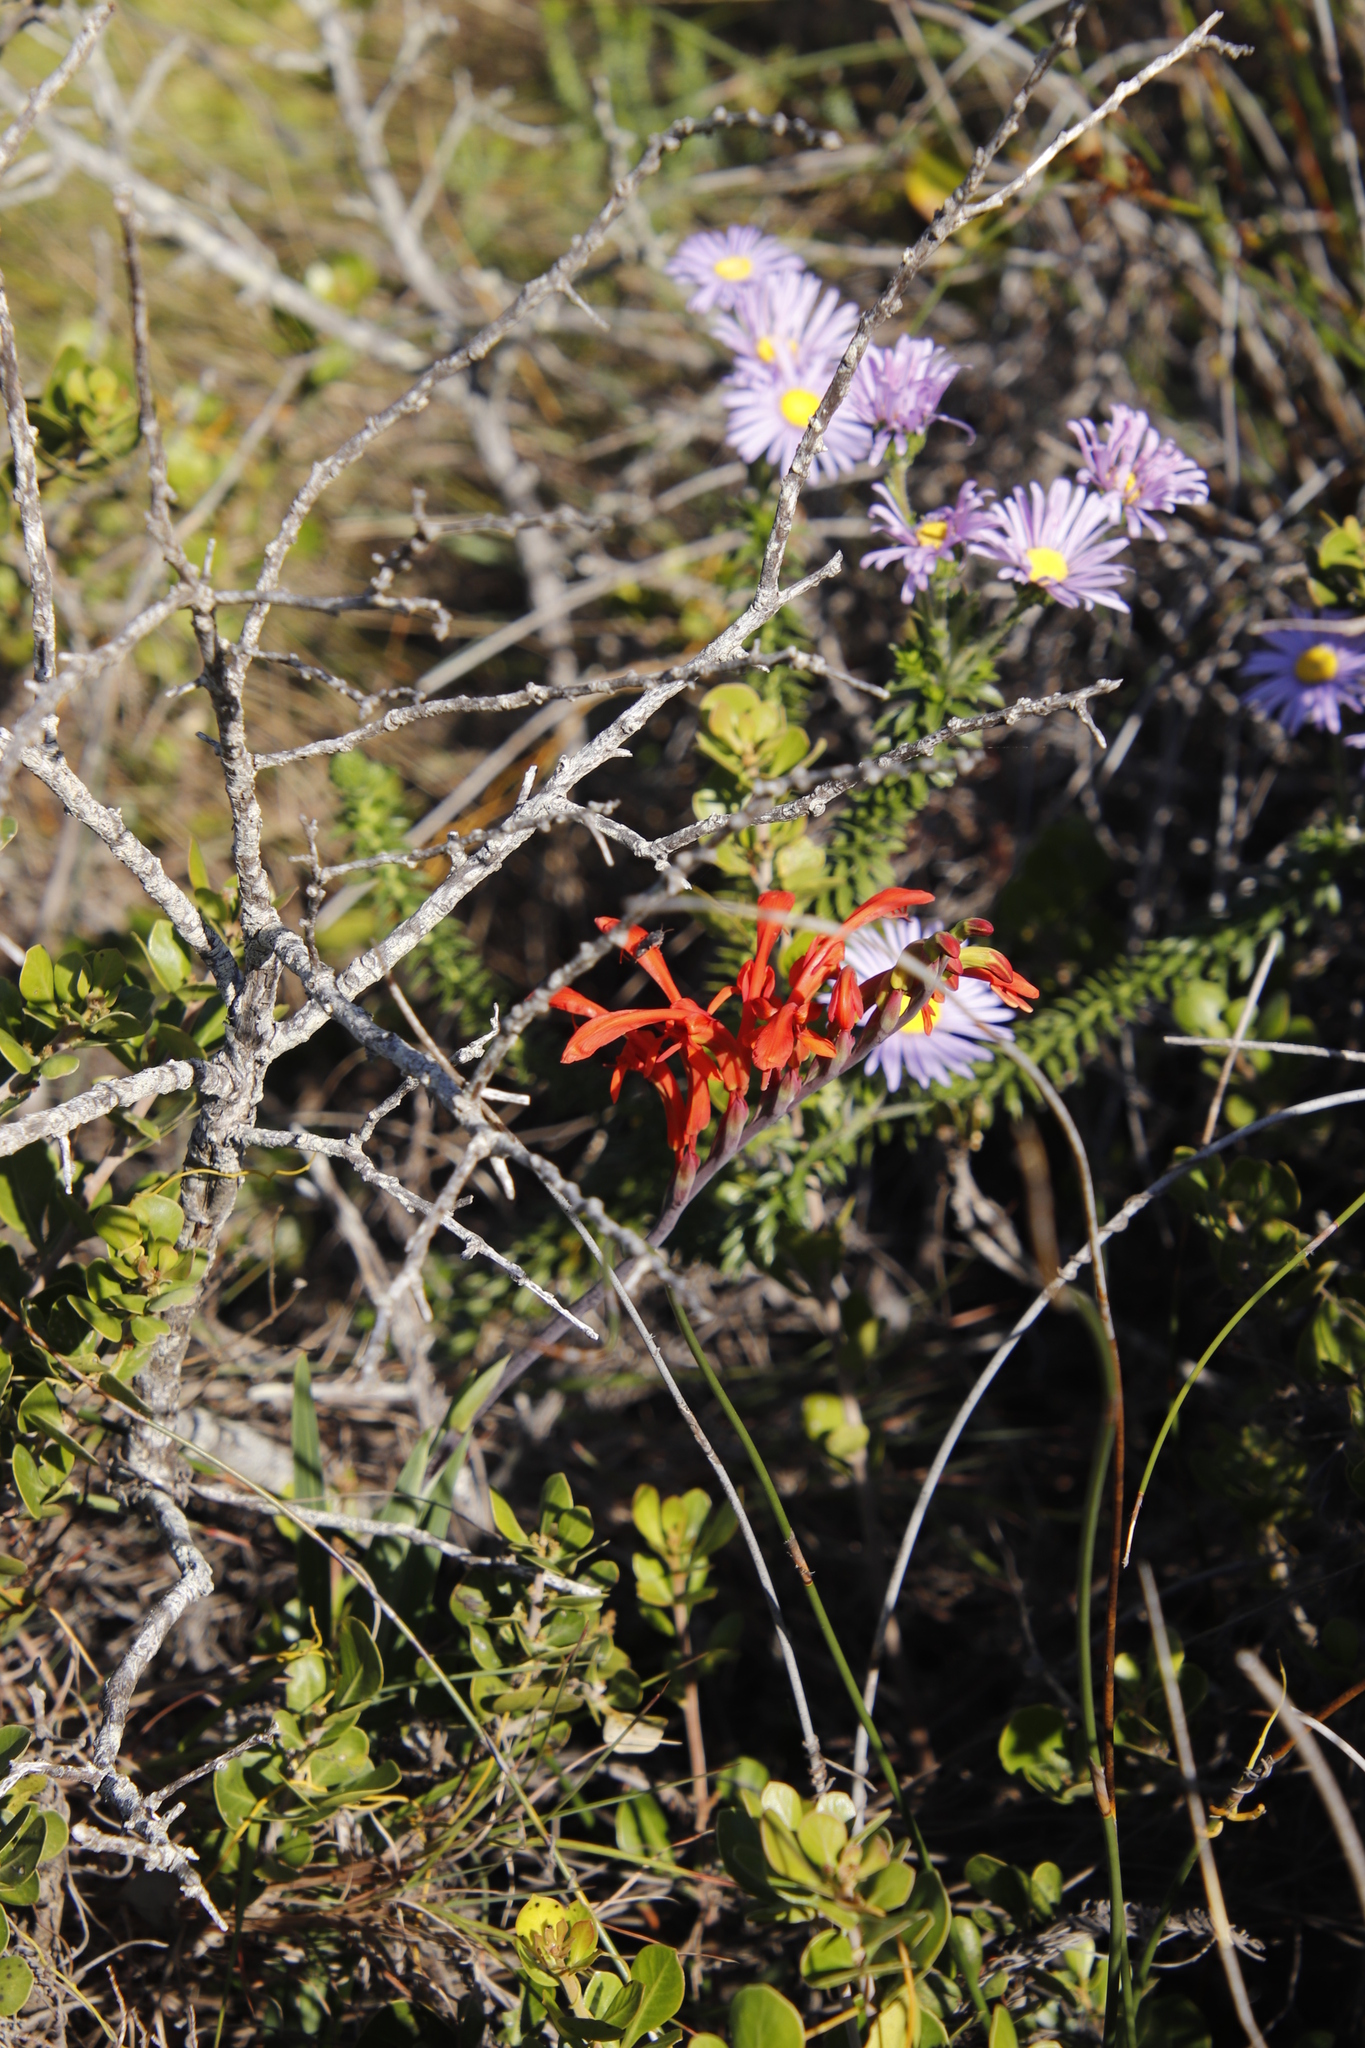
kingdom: Plantae
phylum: Tracheophyta
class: Liliopsida
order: Asparagales
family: Iridaceae
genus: Chasmanthe
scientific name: Chasmanthe aethiopica
